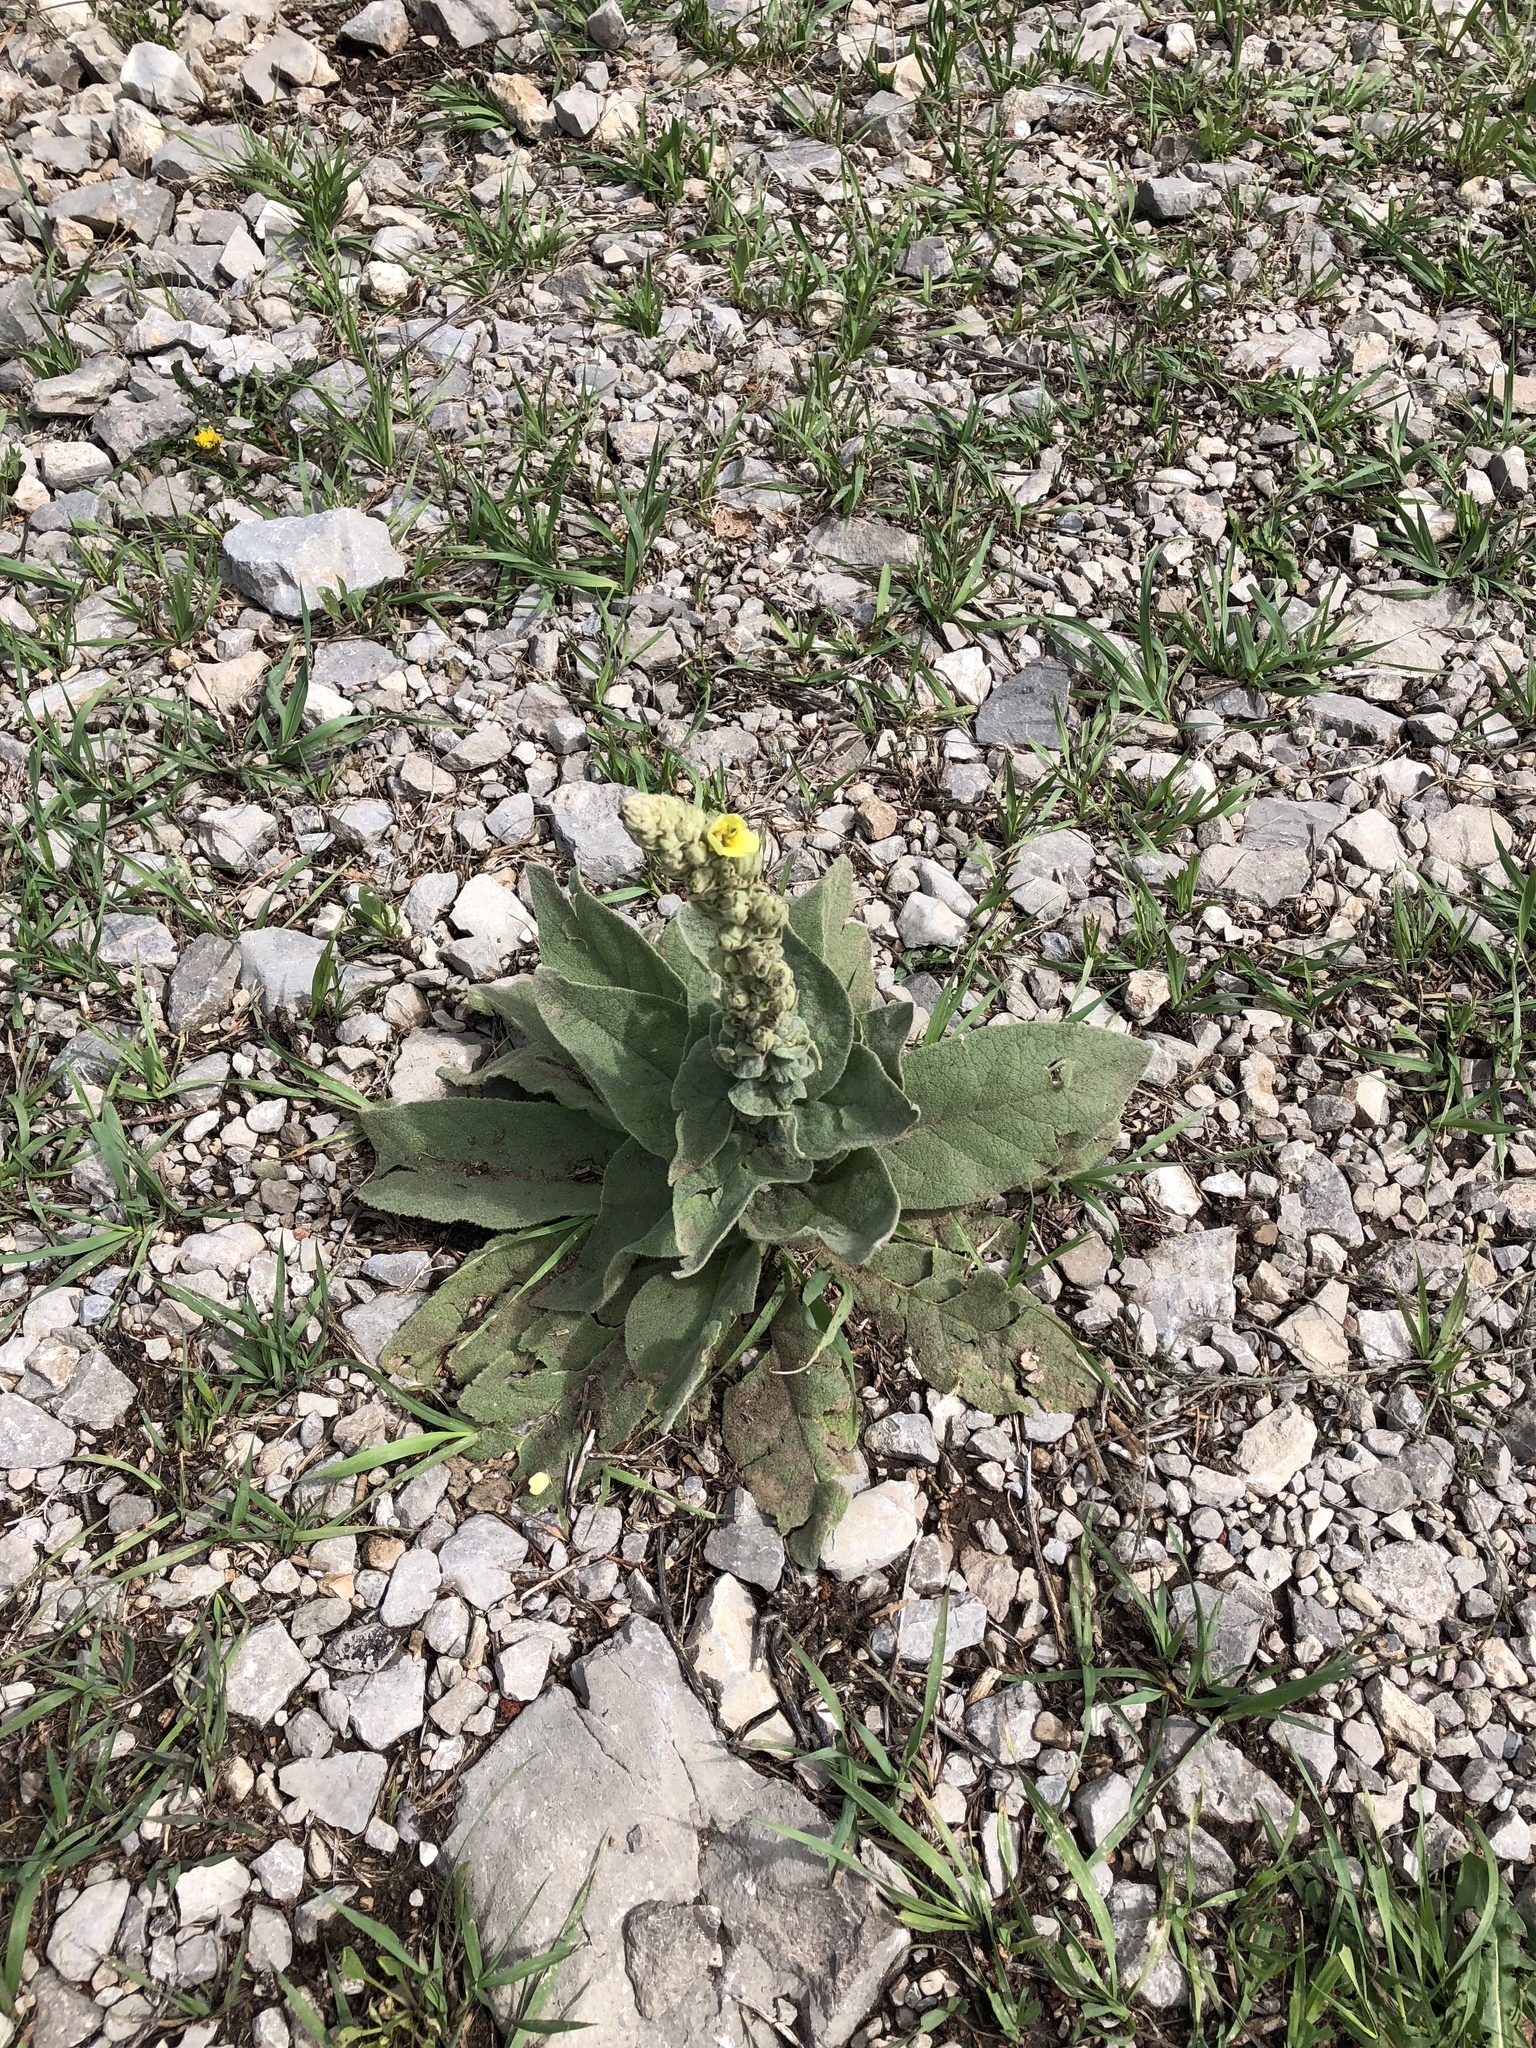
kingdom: Plantae
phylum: Tracheophyta
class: Magnoliopsida
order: Lamiales
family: Scrophulariaceae
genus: Verbascum
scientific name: Verbascum thapsus
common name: Common mullein
